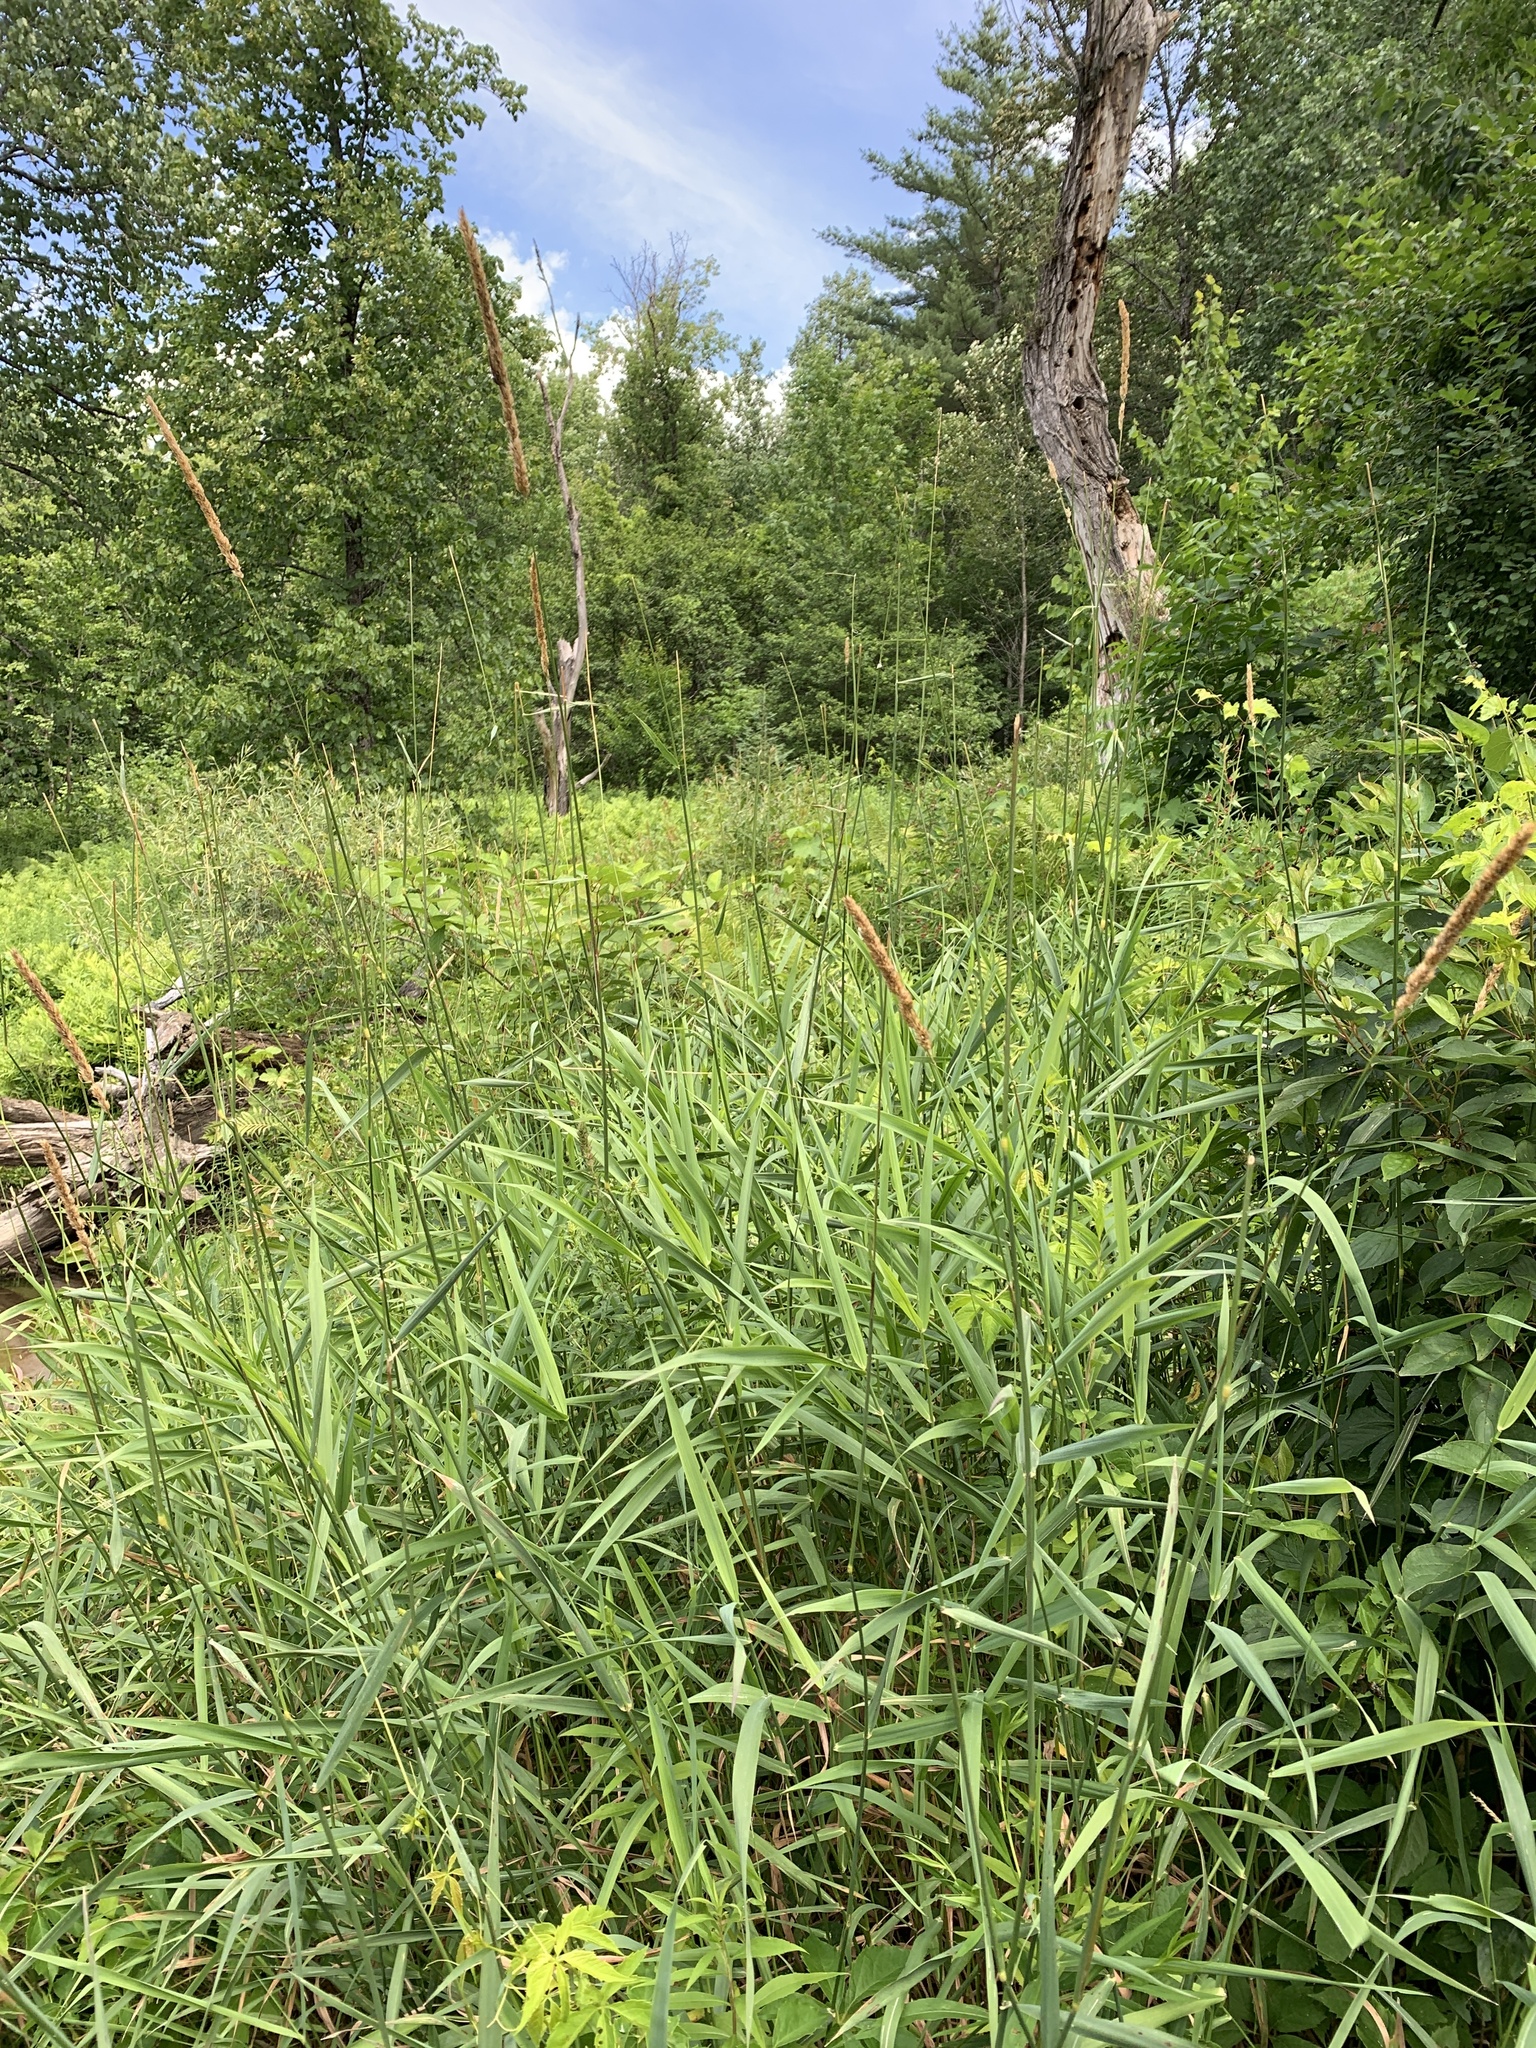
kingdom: Plantae
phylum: Tracheophyta
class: Liliopsida
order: Poales
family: Poaceae
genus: Phalaris
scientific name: Phalaris arundinacea
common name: Reed canary-grass
